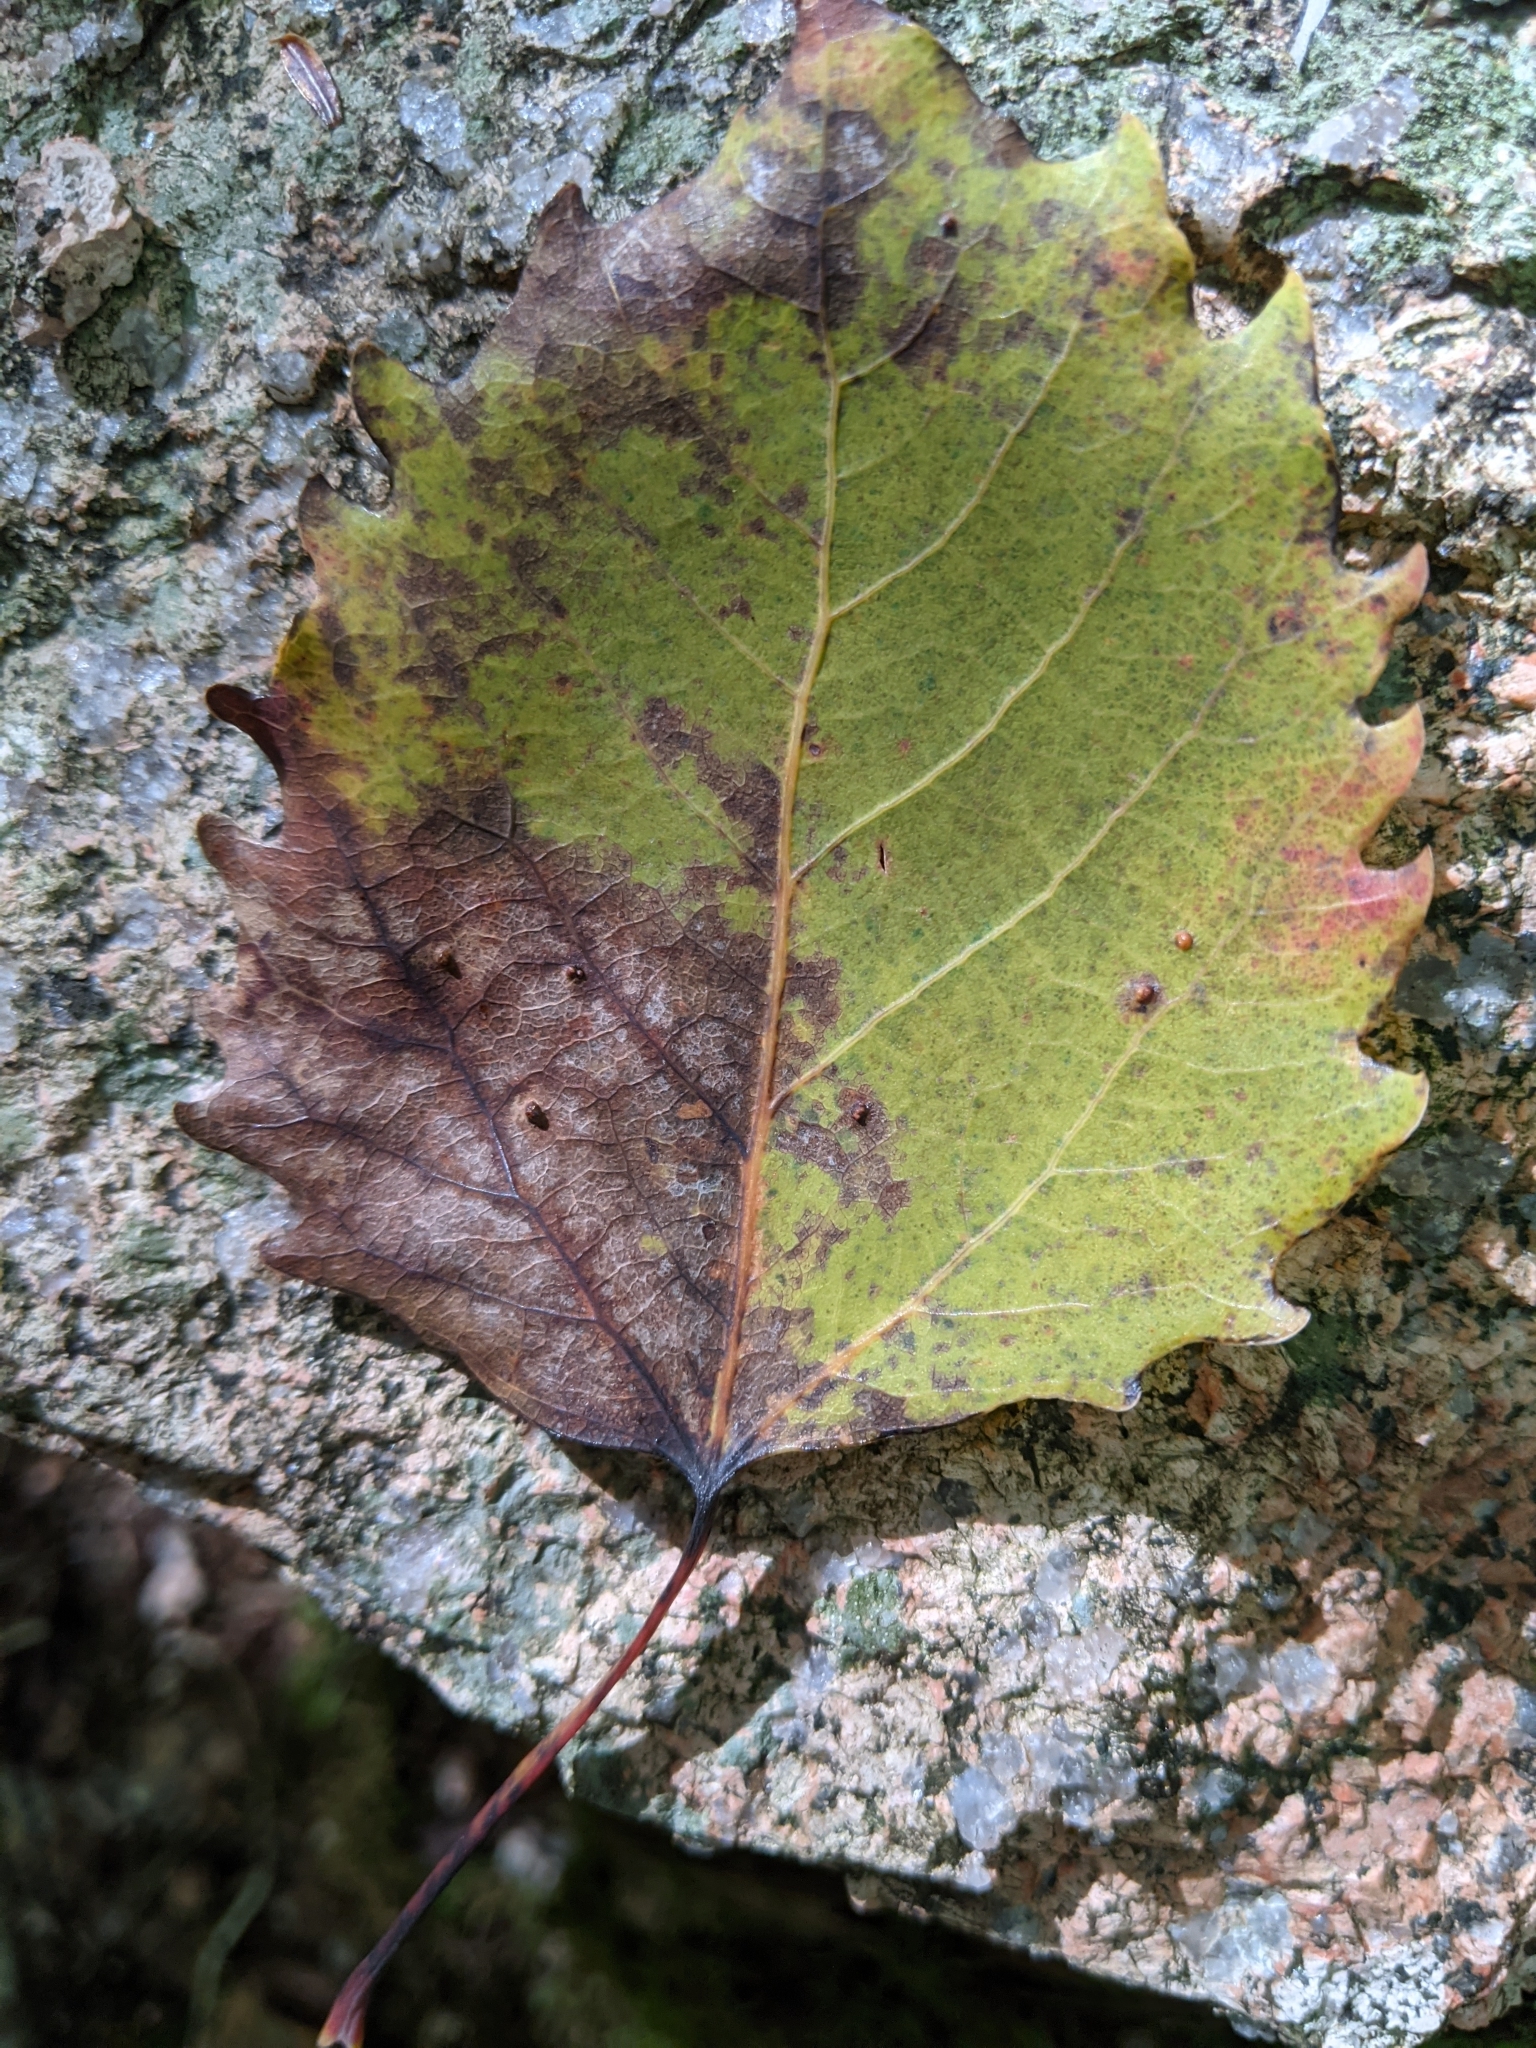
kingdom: Plantae
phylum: Tracheophyta
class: Magnoliopsida
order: Malpighiales
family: Salicaceae
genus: Populus
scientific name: Populus grandidentata
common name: Bigtooth aspen
